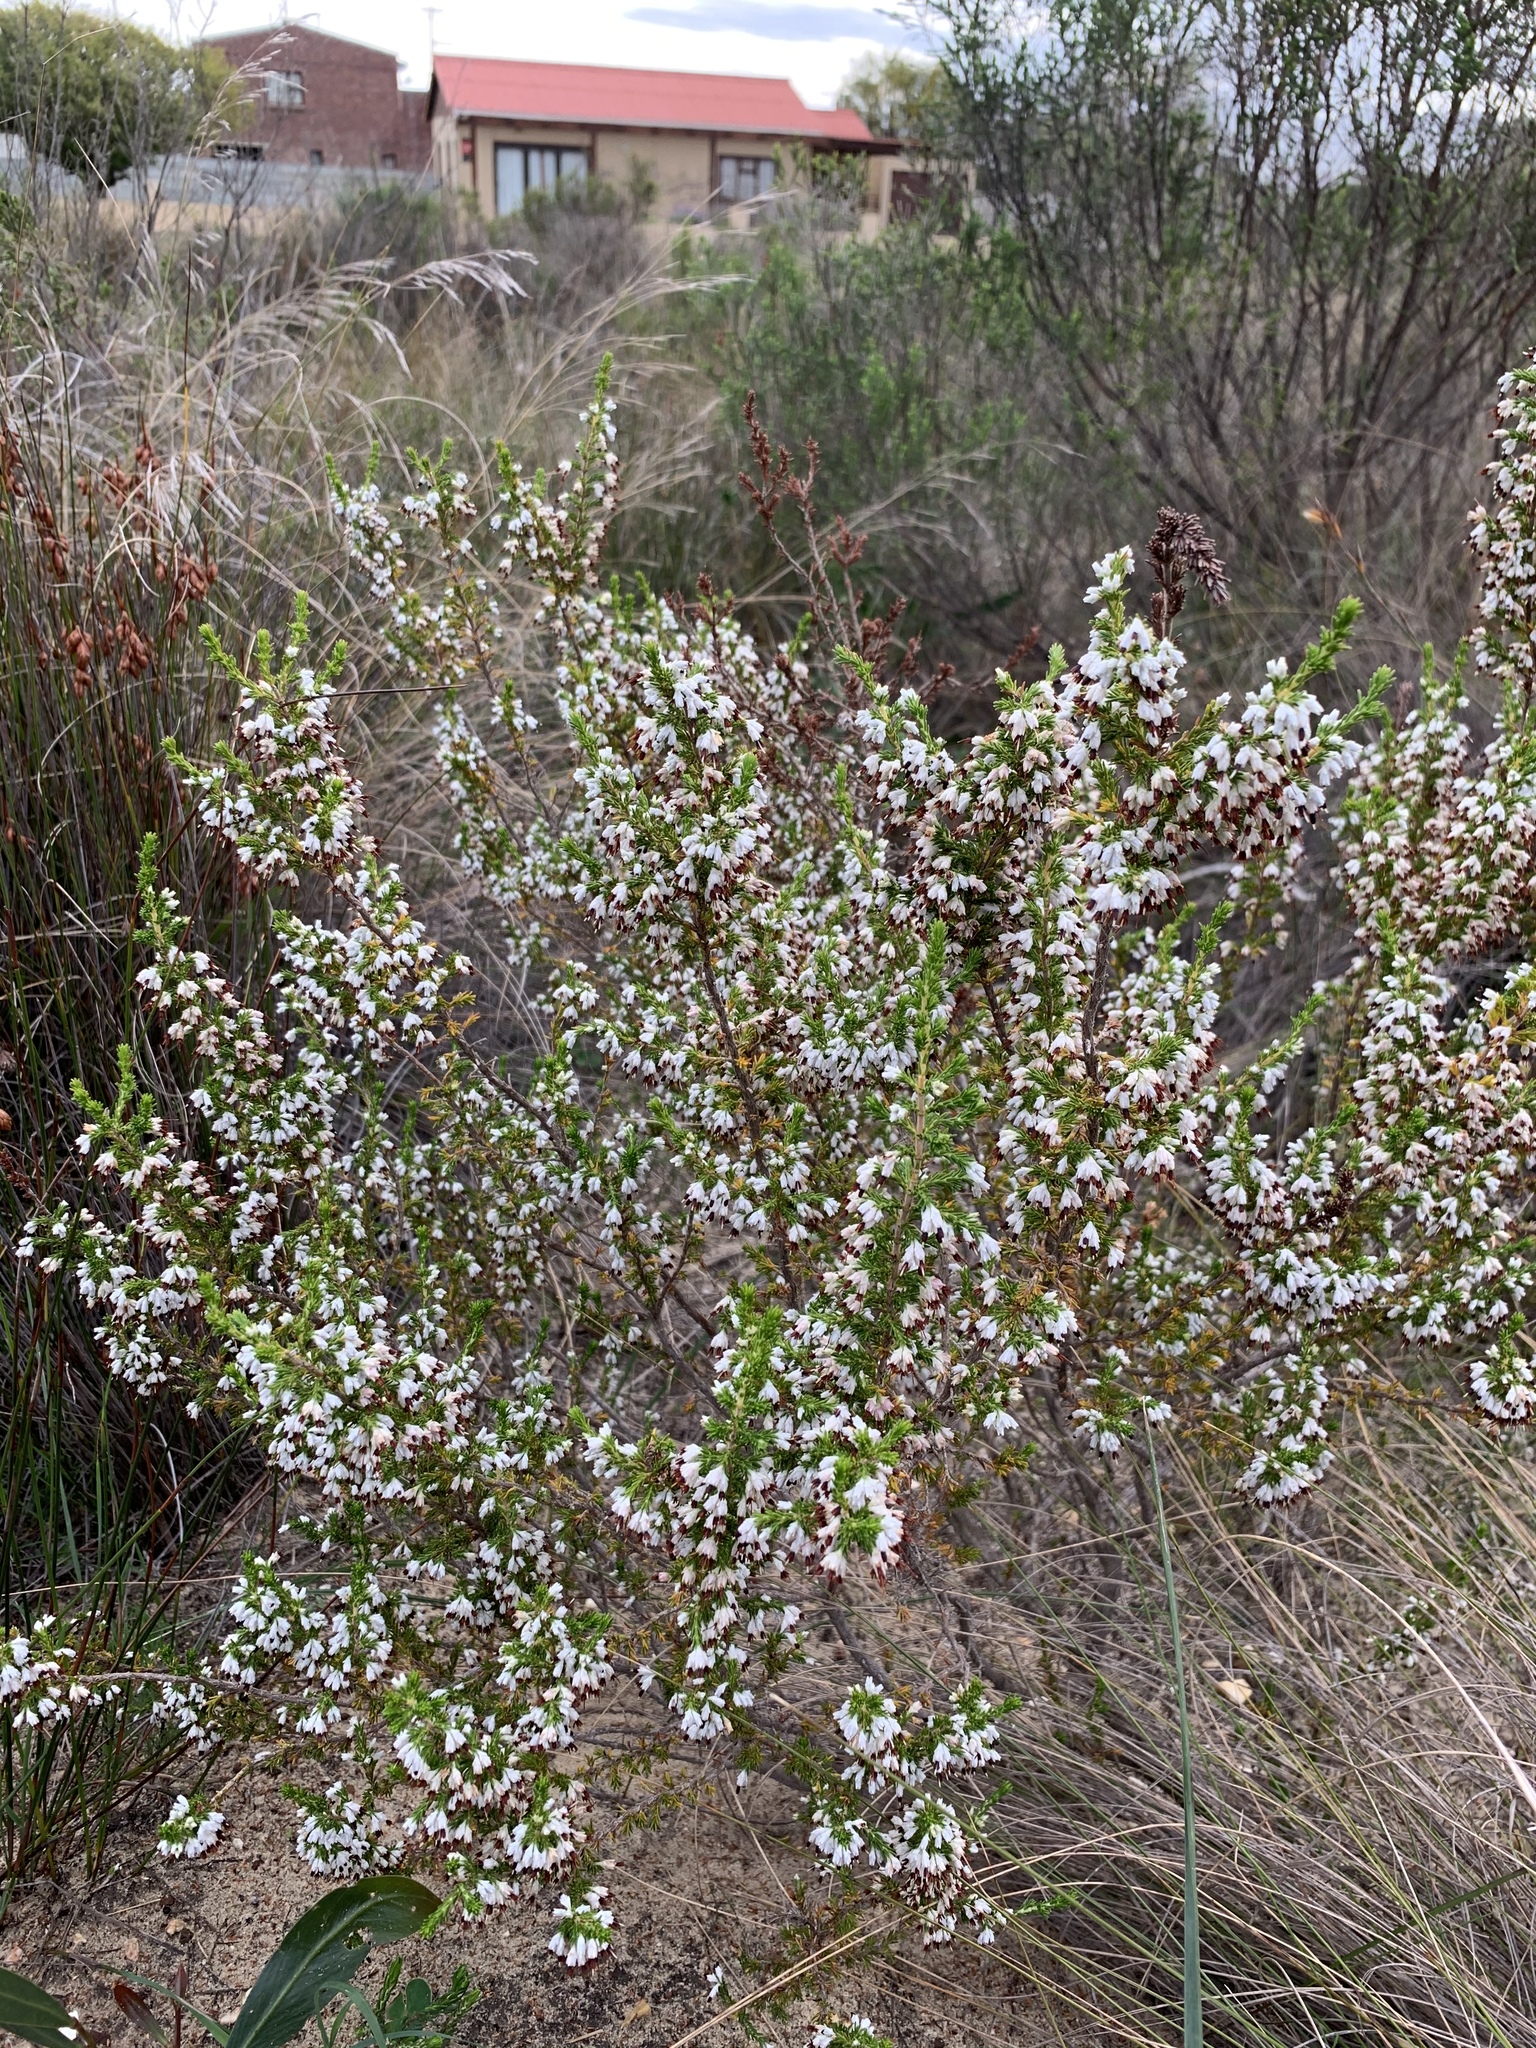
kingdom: Plantae
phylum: Tracheophyta
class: Magnoliopsida
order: Ericales
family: Ericaceae
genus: Erica
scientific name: Erica imbricata
